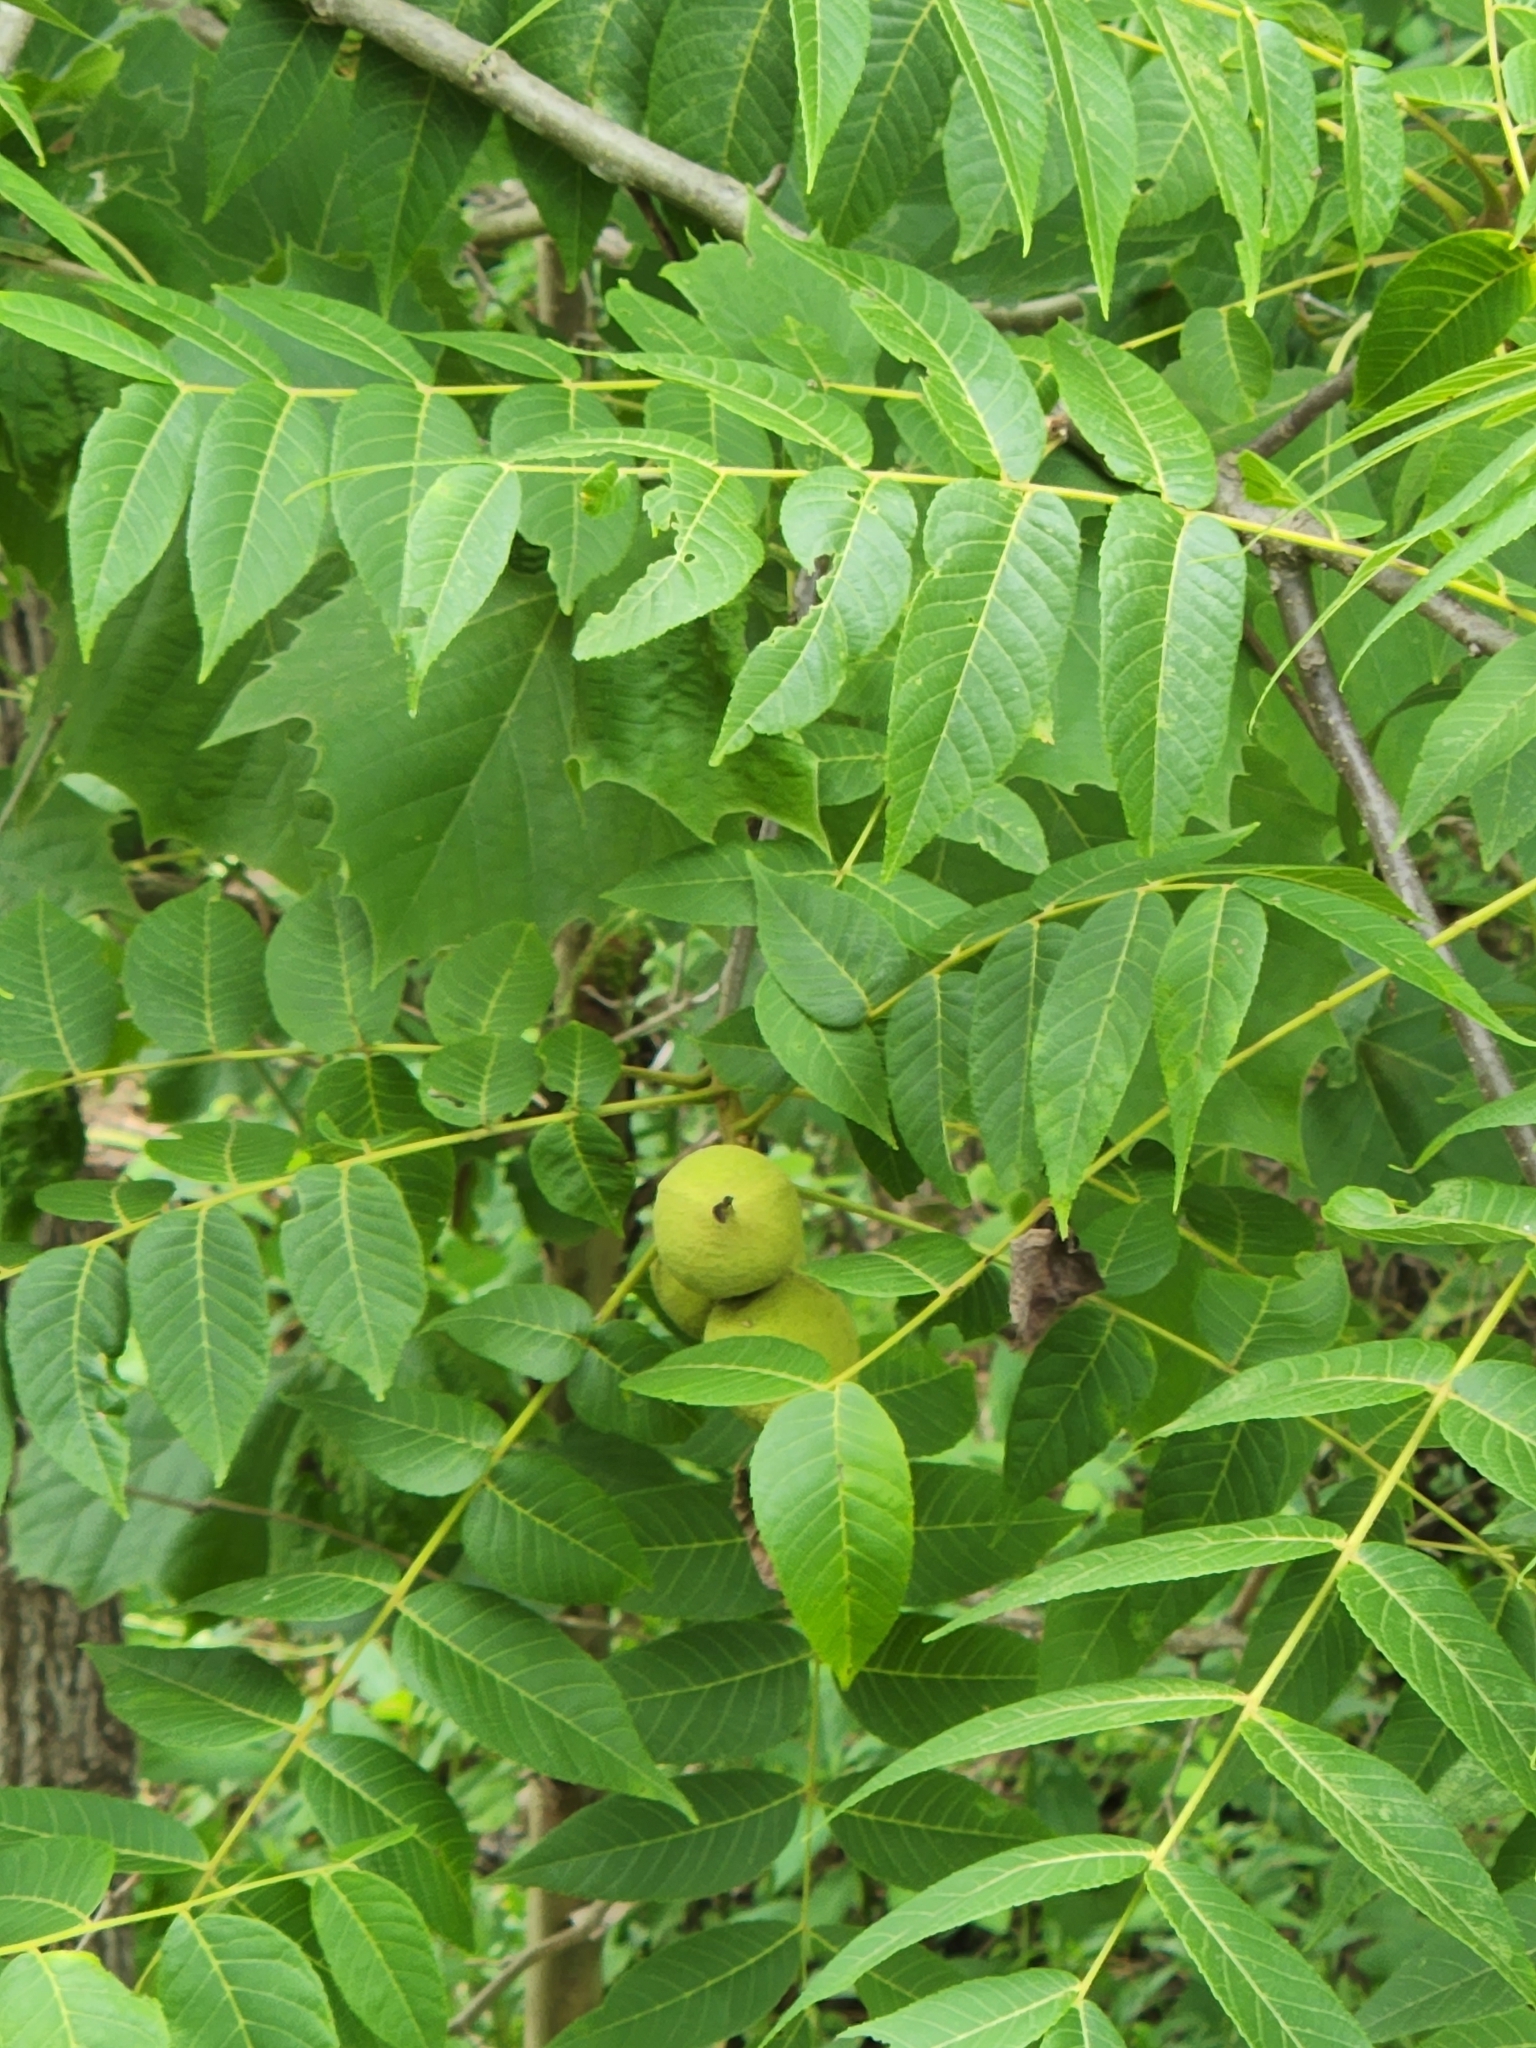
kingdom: Plantae
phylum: Tracheophyta
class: Magnoliopsida
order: Fagales
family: Juglandaceae
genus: Juglans
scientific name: Juglans nigra
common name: Black walnut
